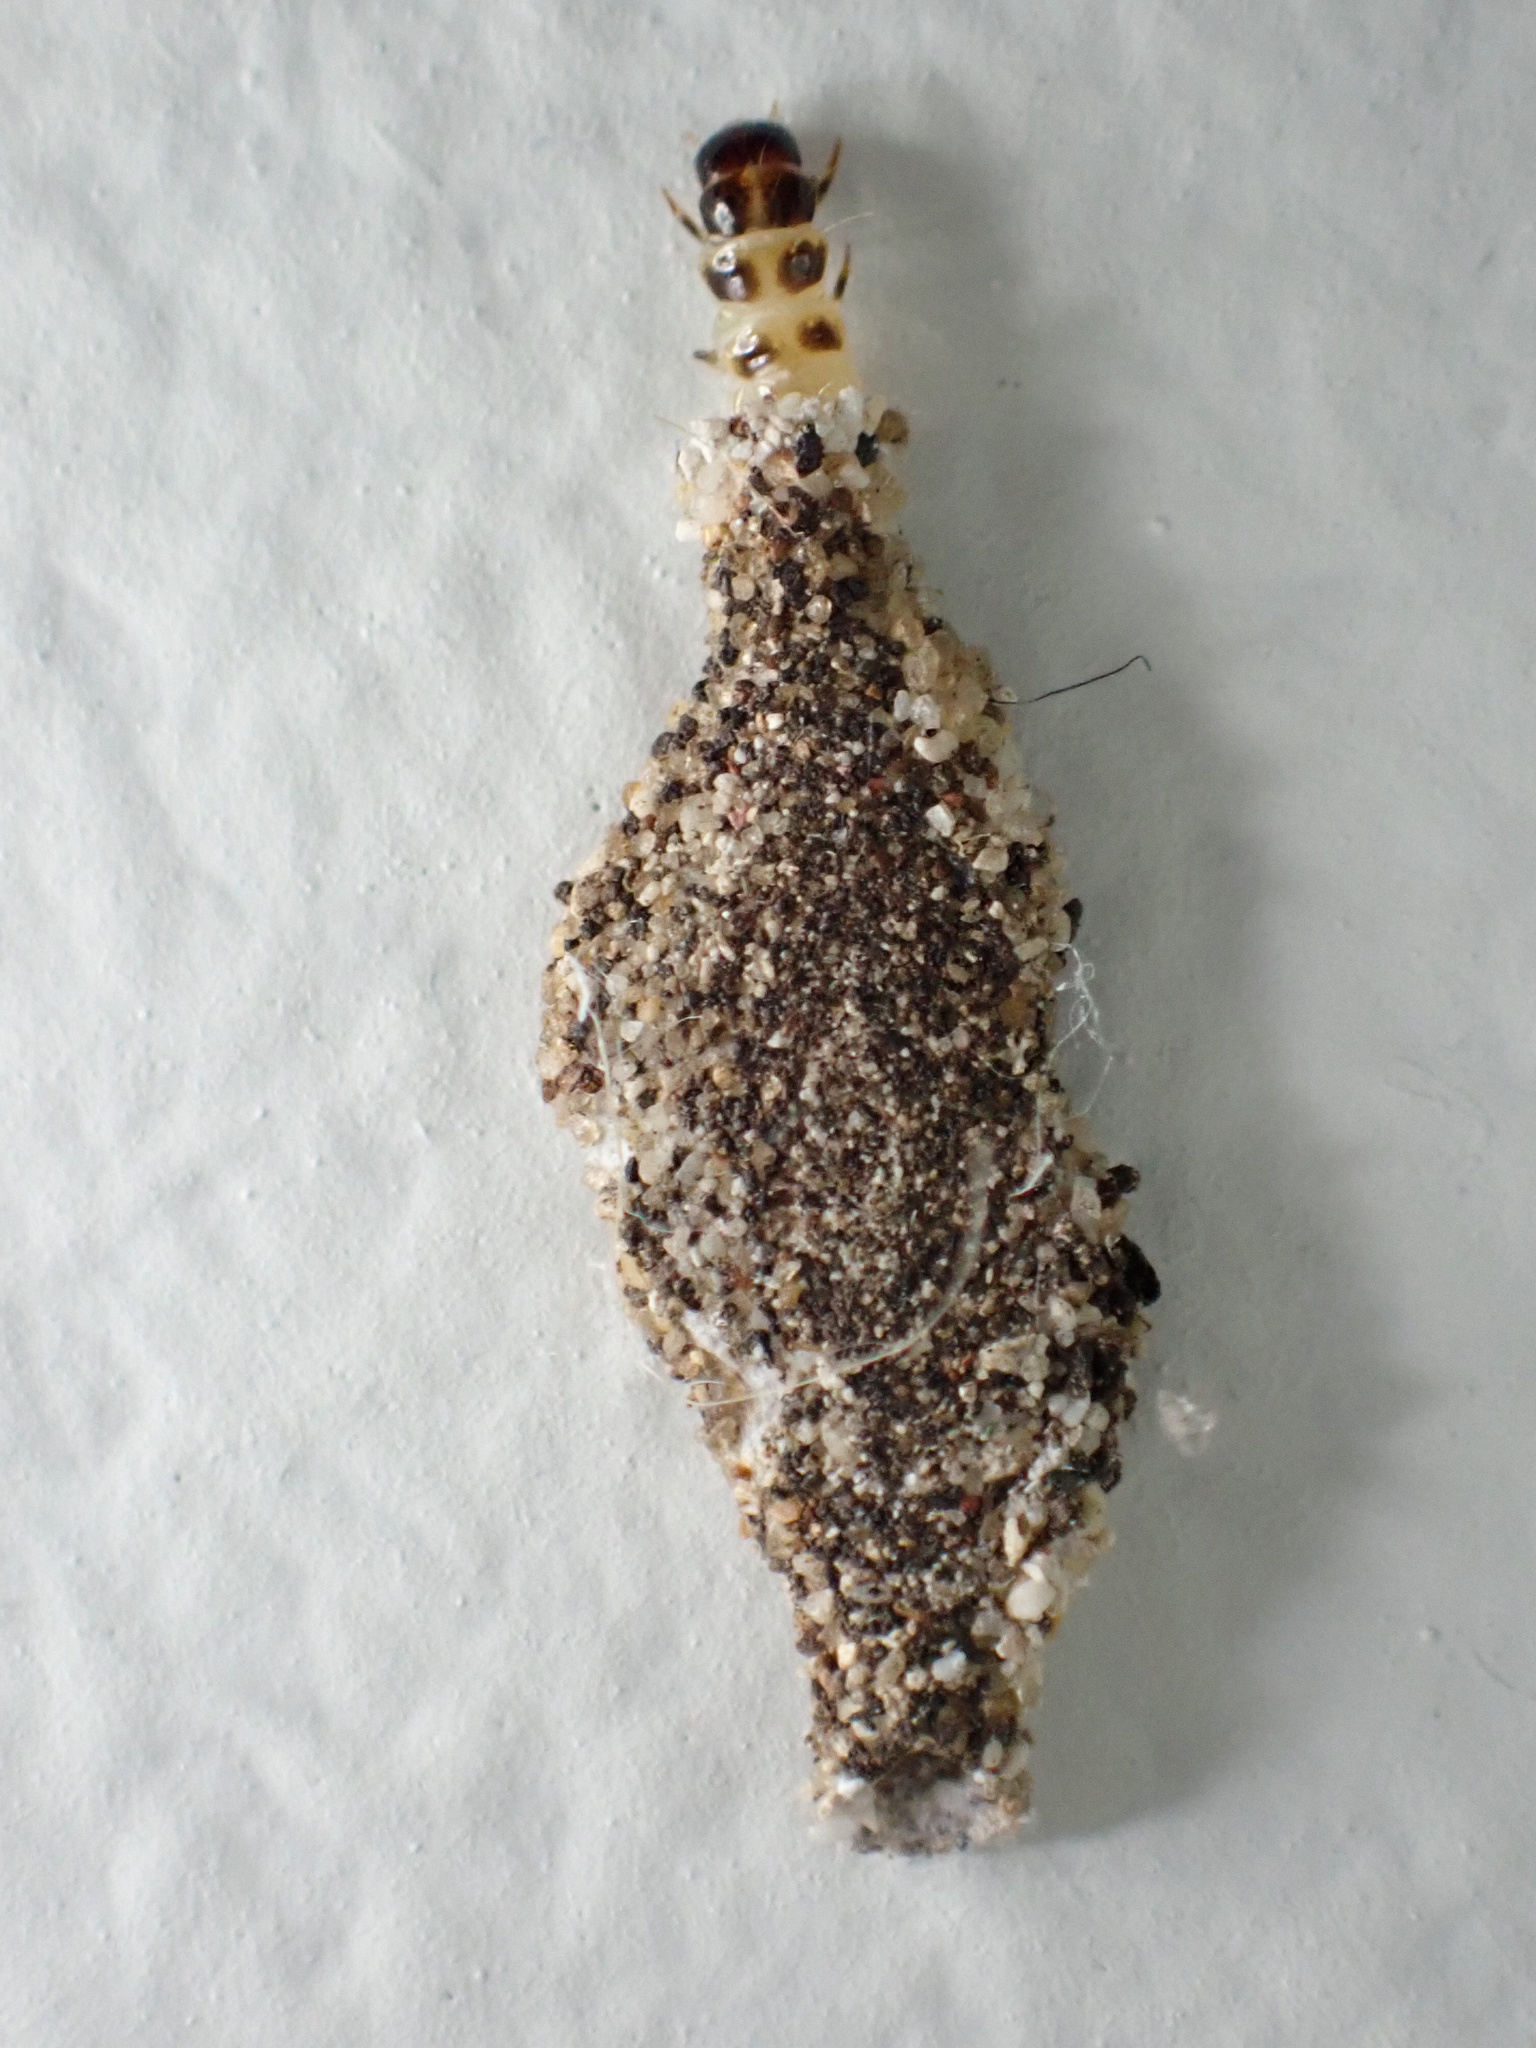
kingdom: Animalia
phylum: Arthropoda
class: Insecta
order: Lepidoptera
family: Tineidae
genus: Phereoeca
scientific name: Phereoeca uterella
